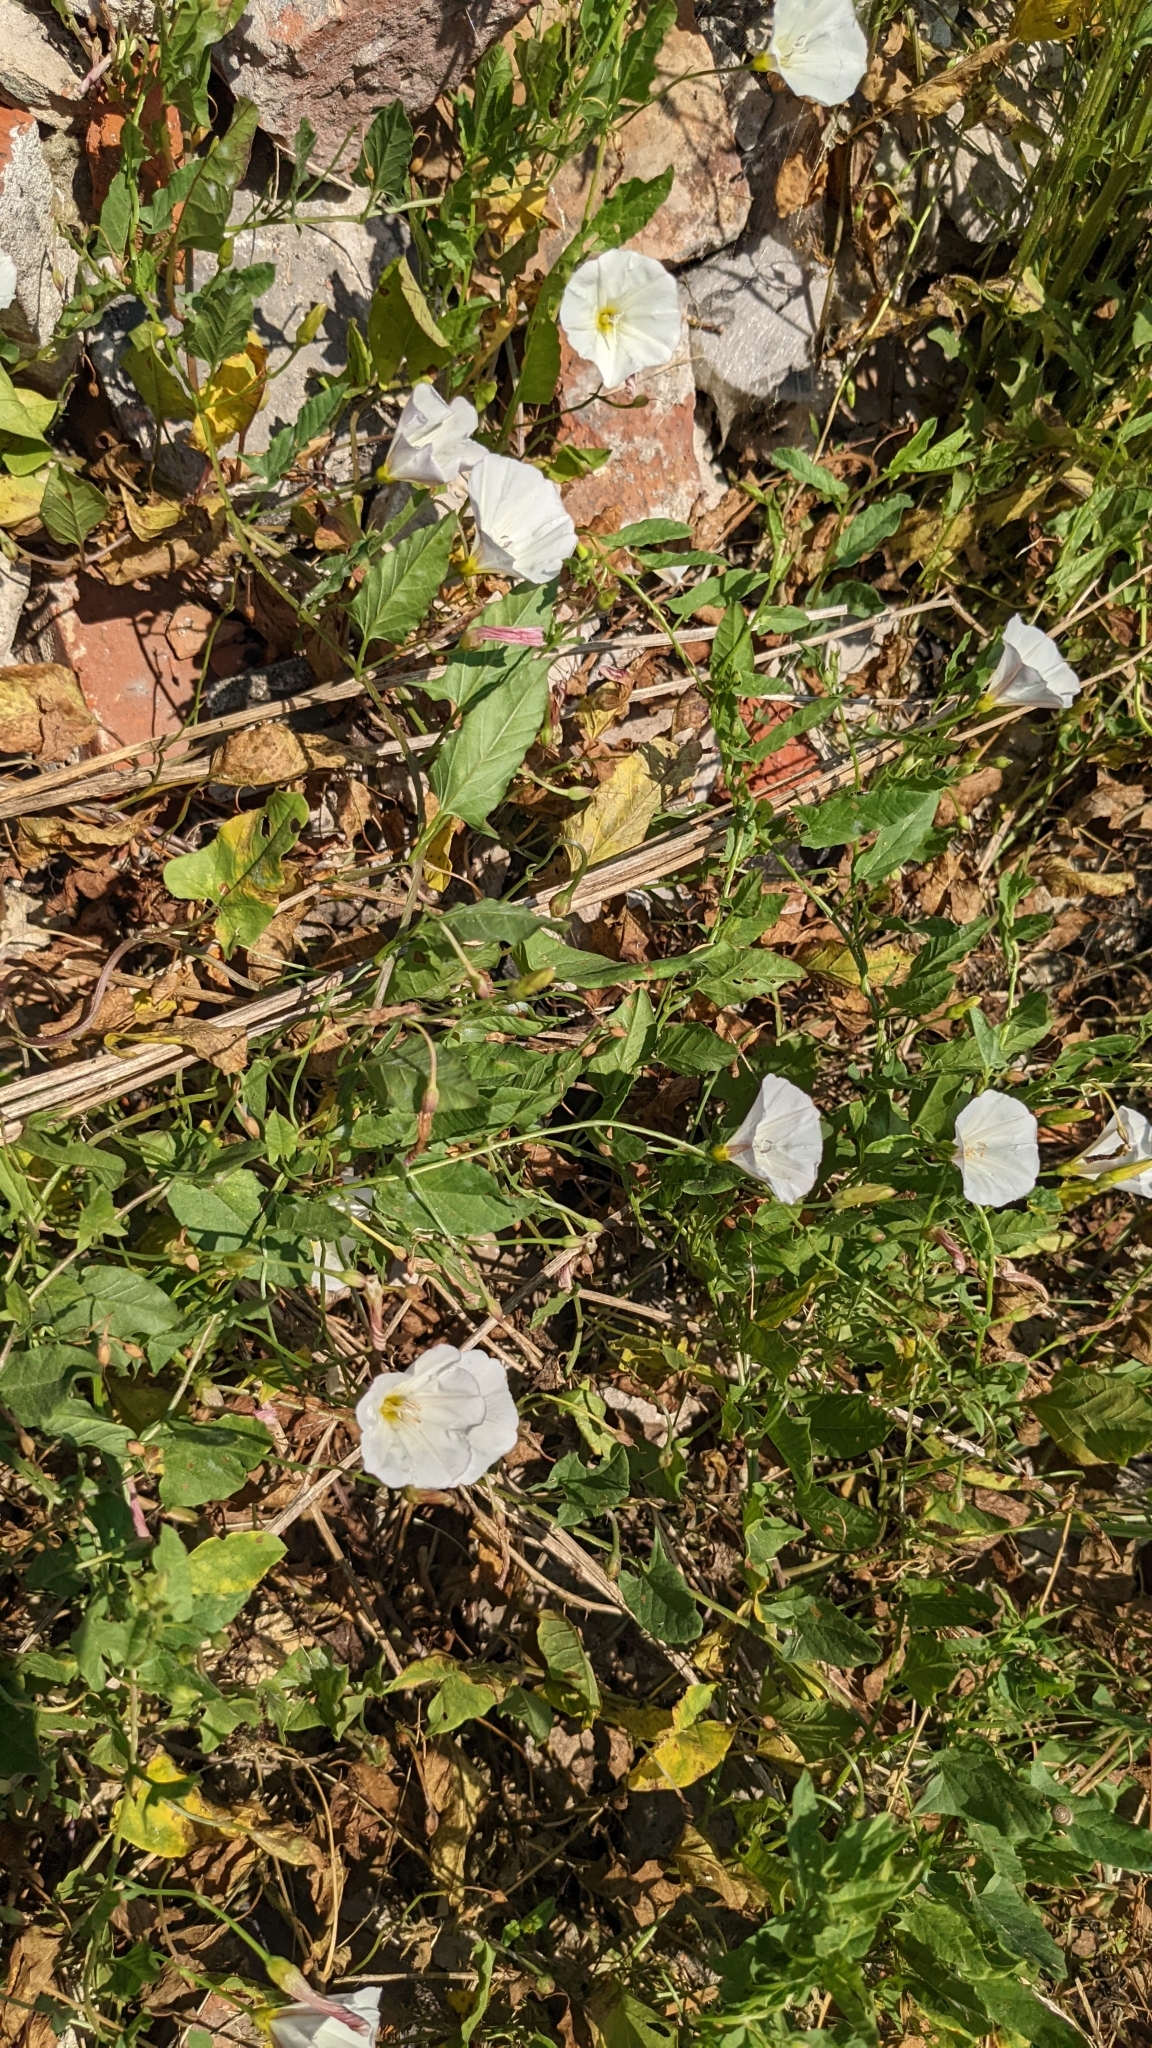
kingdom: Plantae
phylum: Tracheophyta
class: Magnoliopsida
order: Solanales
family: Convolvulaceae
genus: Convolvulus
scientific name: Convolvulus arvensis
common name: Field bindweed
